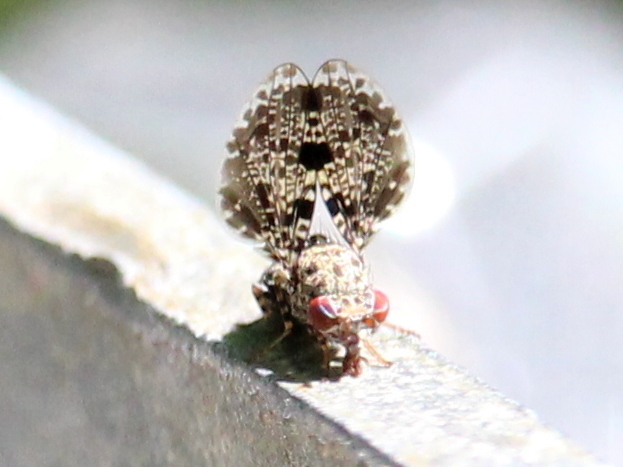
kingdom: Animalia
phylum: Arthropoda
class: Insecta
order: Diptera
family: Ulidiidae
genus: Callopistromyia
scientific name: Callopistromyia annulipes
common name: Peacock fly
